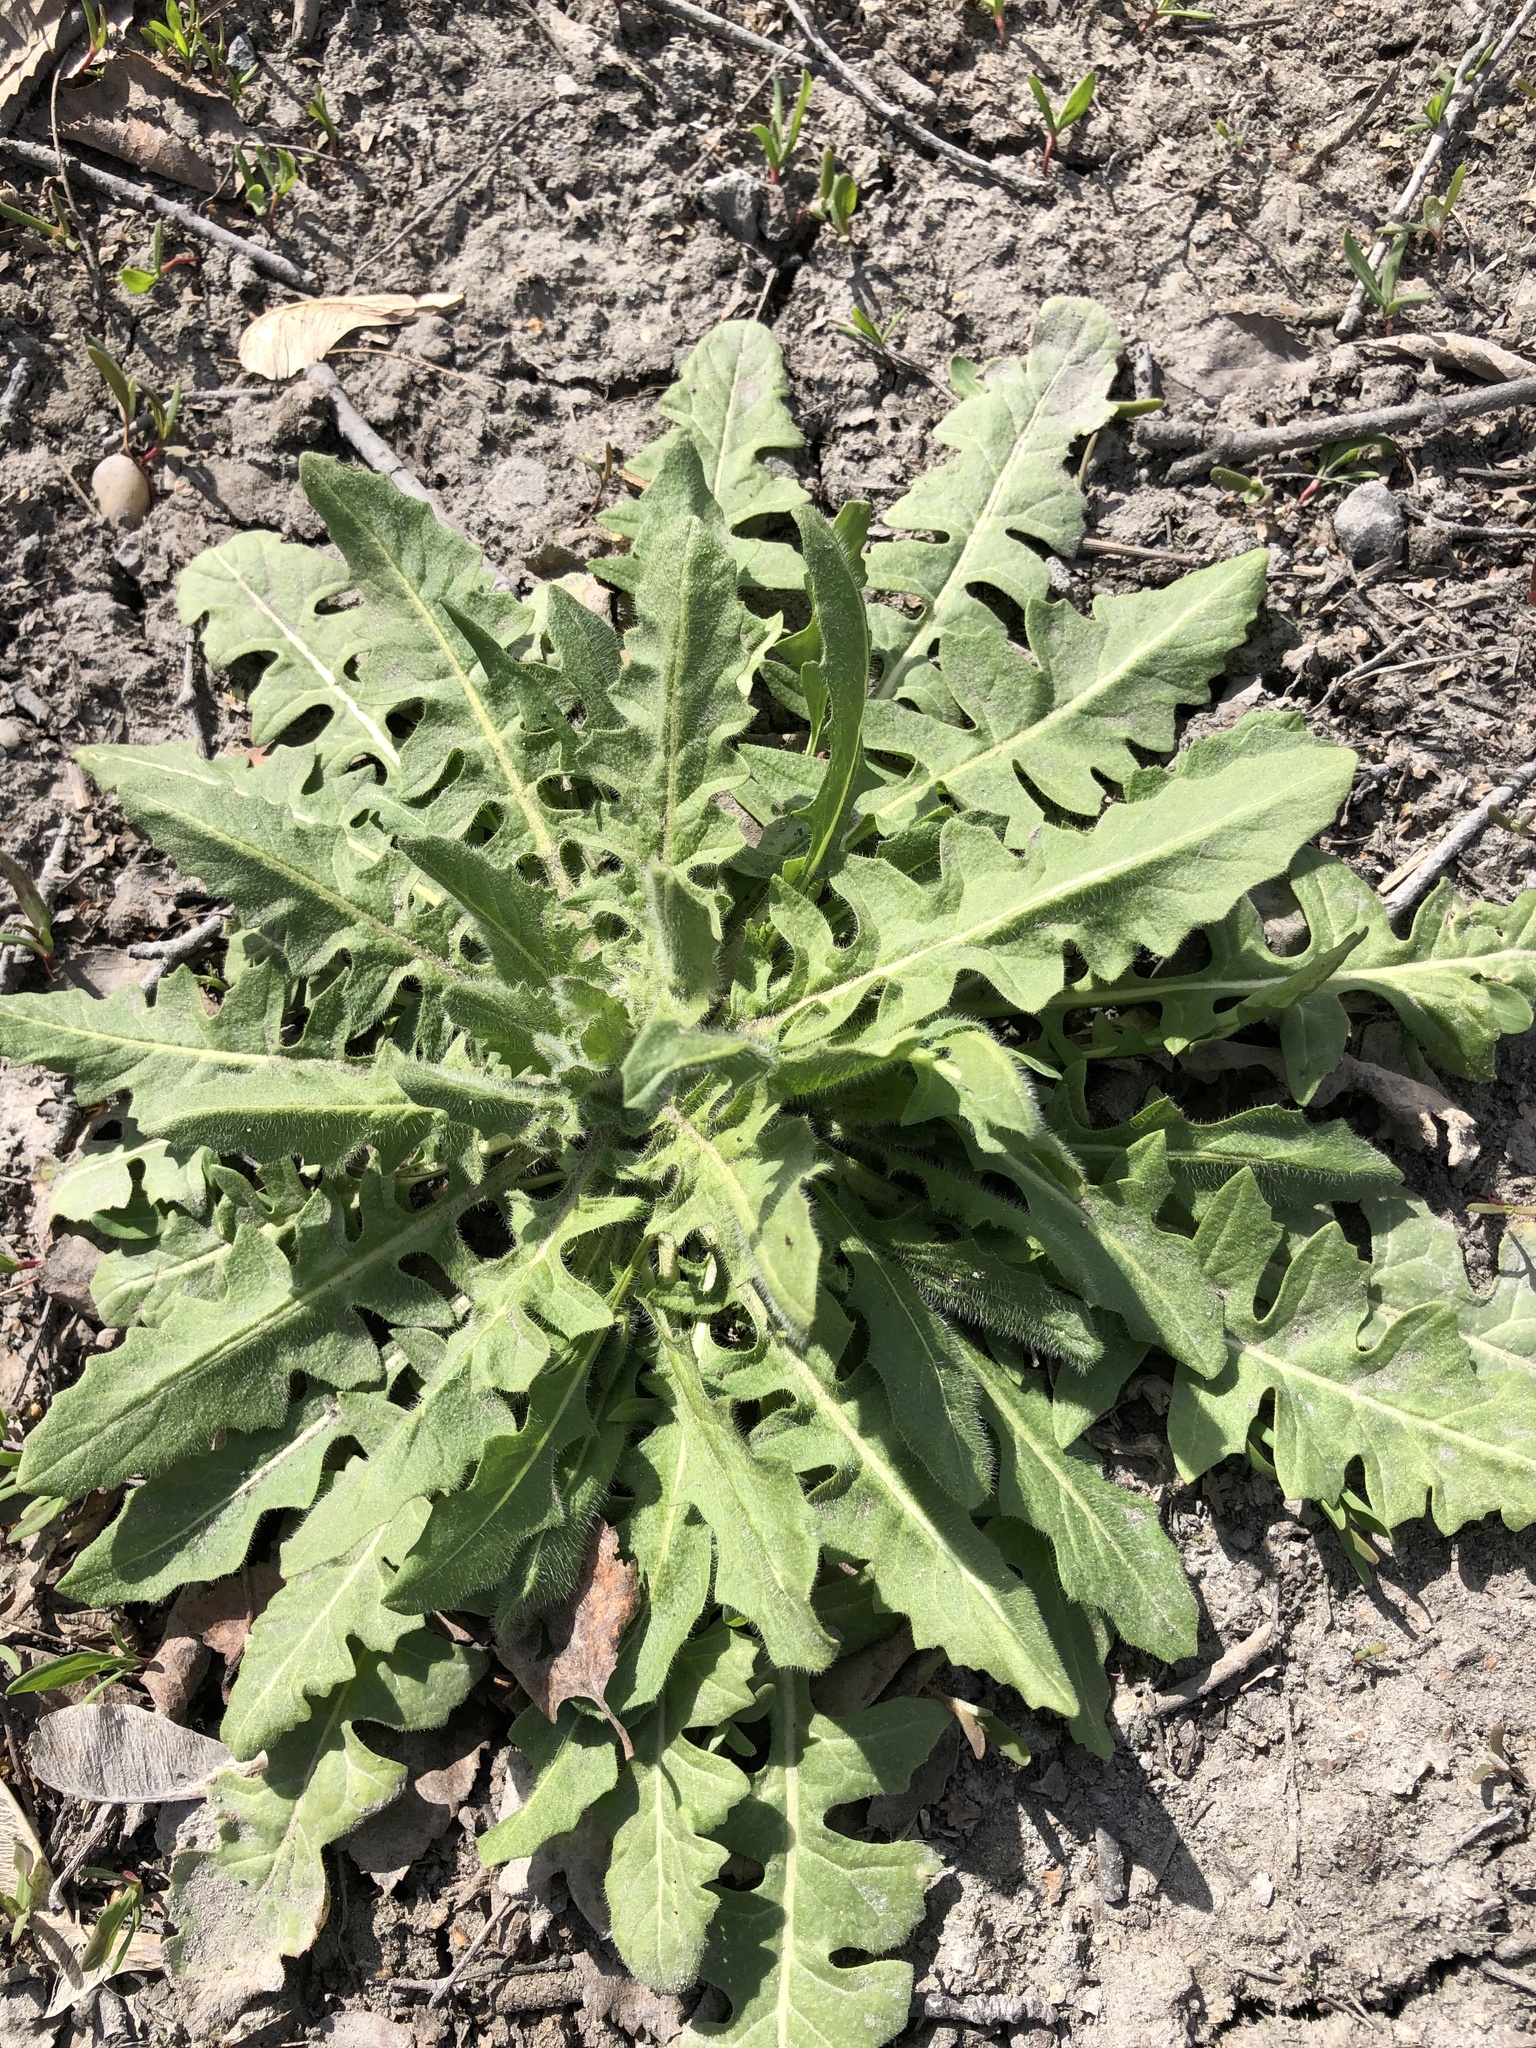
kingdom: Plantae
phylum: Tracheophyta
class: Magnoliopsida
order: Brassicales
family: Brassicaceae
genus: Sisymbrium
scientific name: Sisymbrium loeselii
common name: False london-rocket
